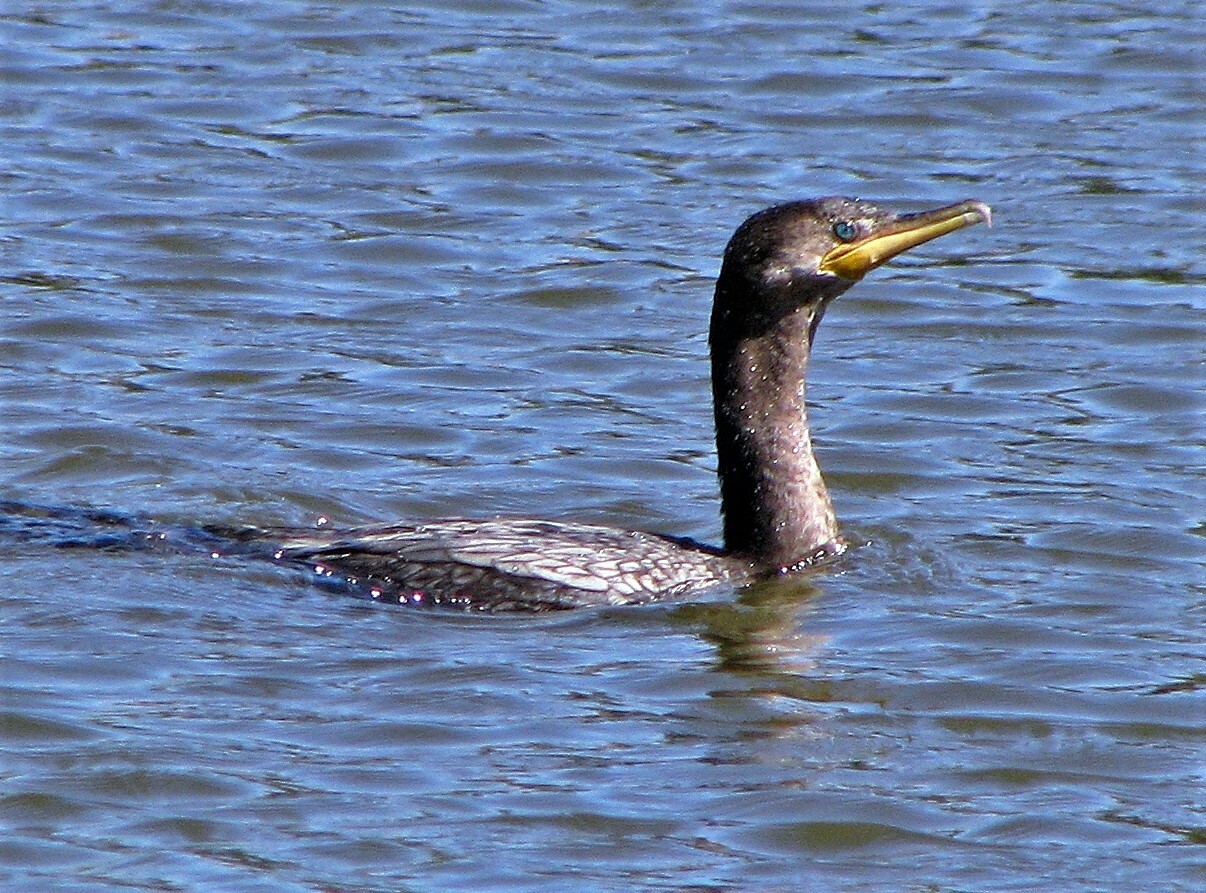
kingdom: Animalia
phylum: Chordata
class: Aves
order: Suliformes
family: Phalacrocoracidae
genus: Phalacrocorax
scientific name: Phalacrocorax brasilianus
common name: Neotropic cormorant
